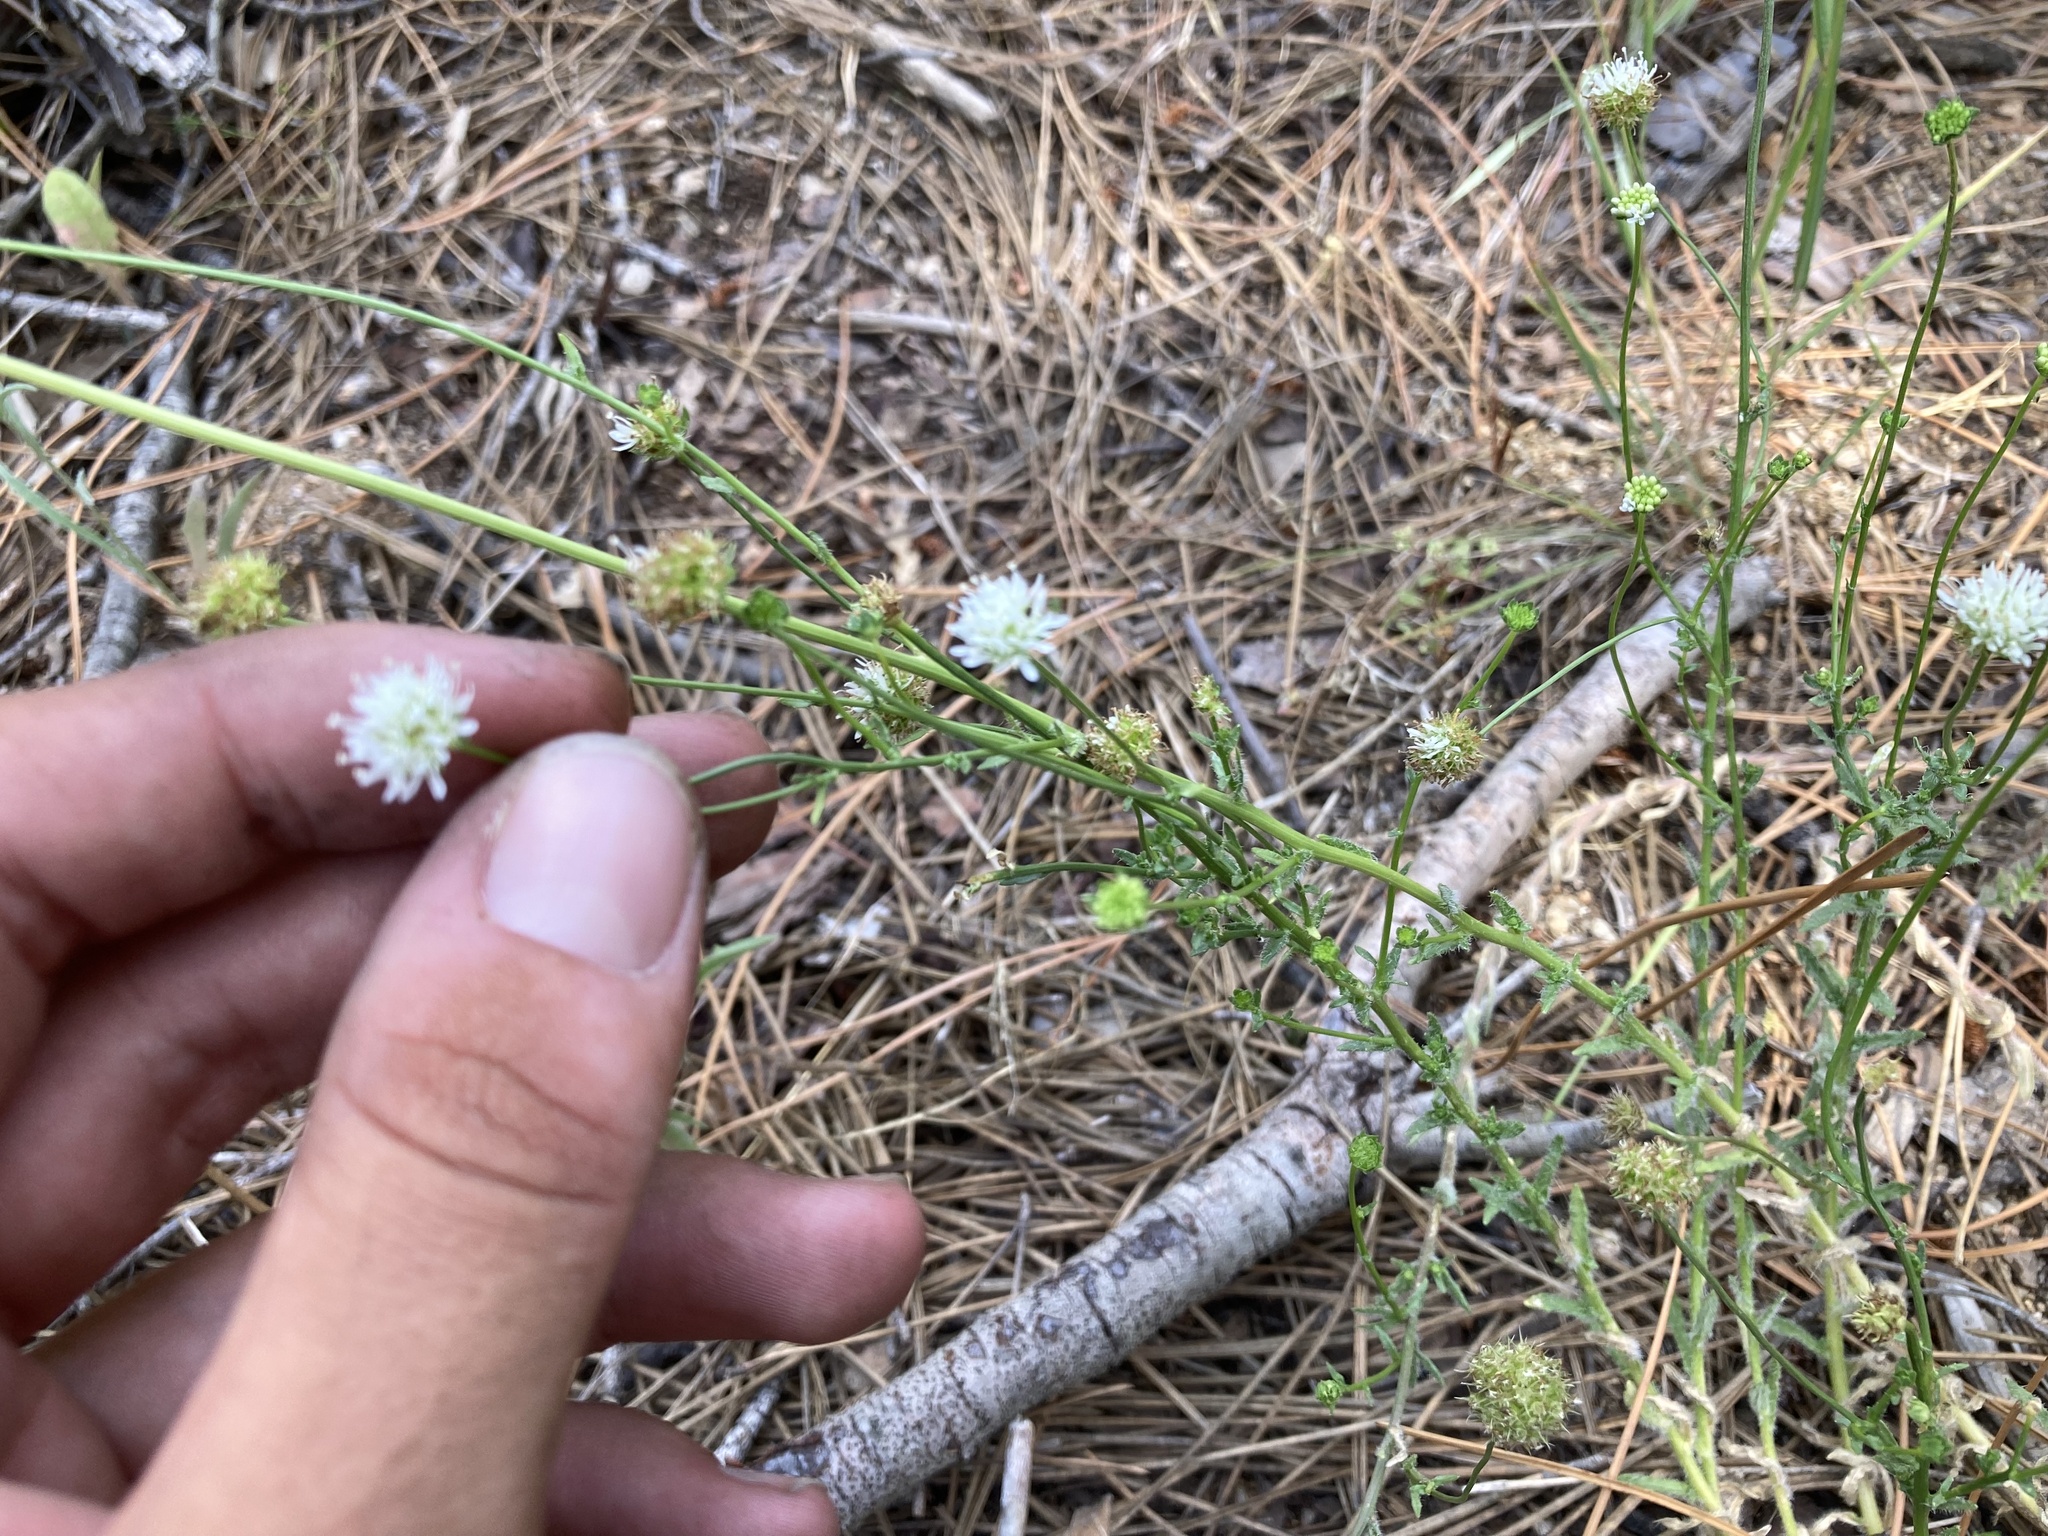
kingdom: Plantae
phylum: Tracheophyta
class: Magnoliopsida
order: Asterales
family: Campanulaceae
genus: Jasione
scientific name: Jasione montana
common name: Sheep's-bit
